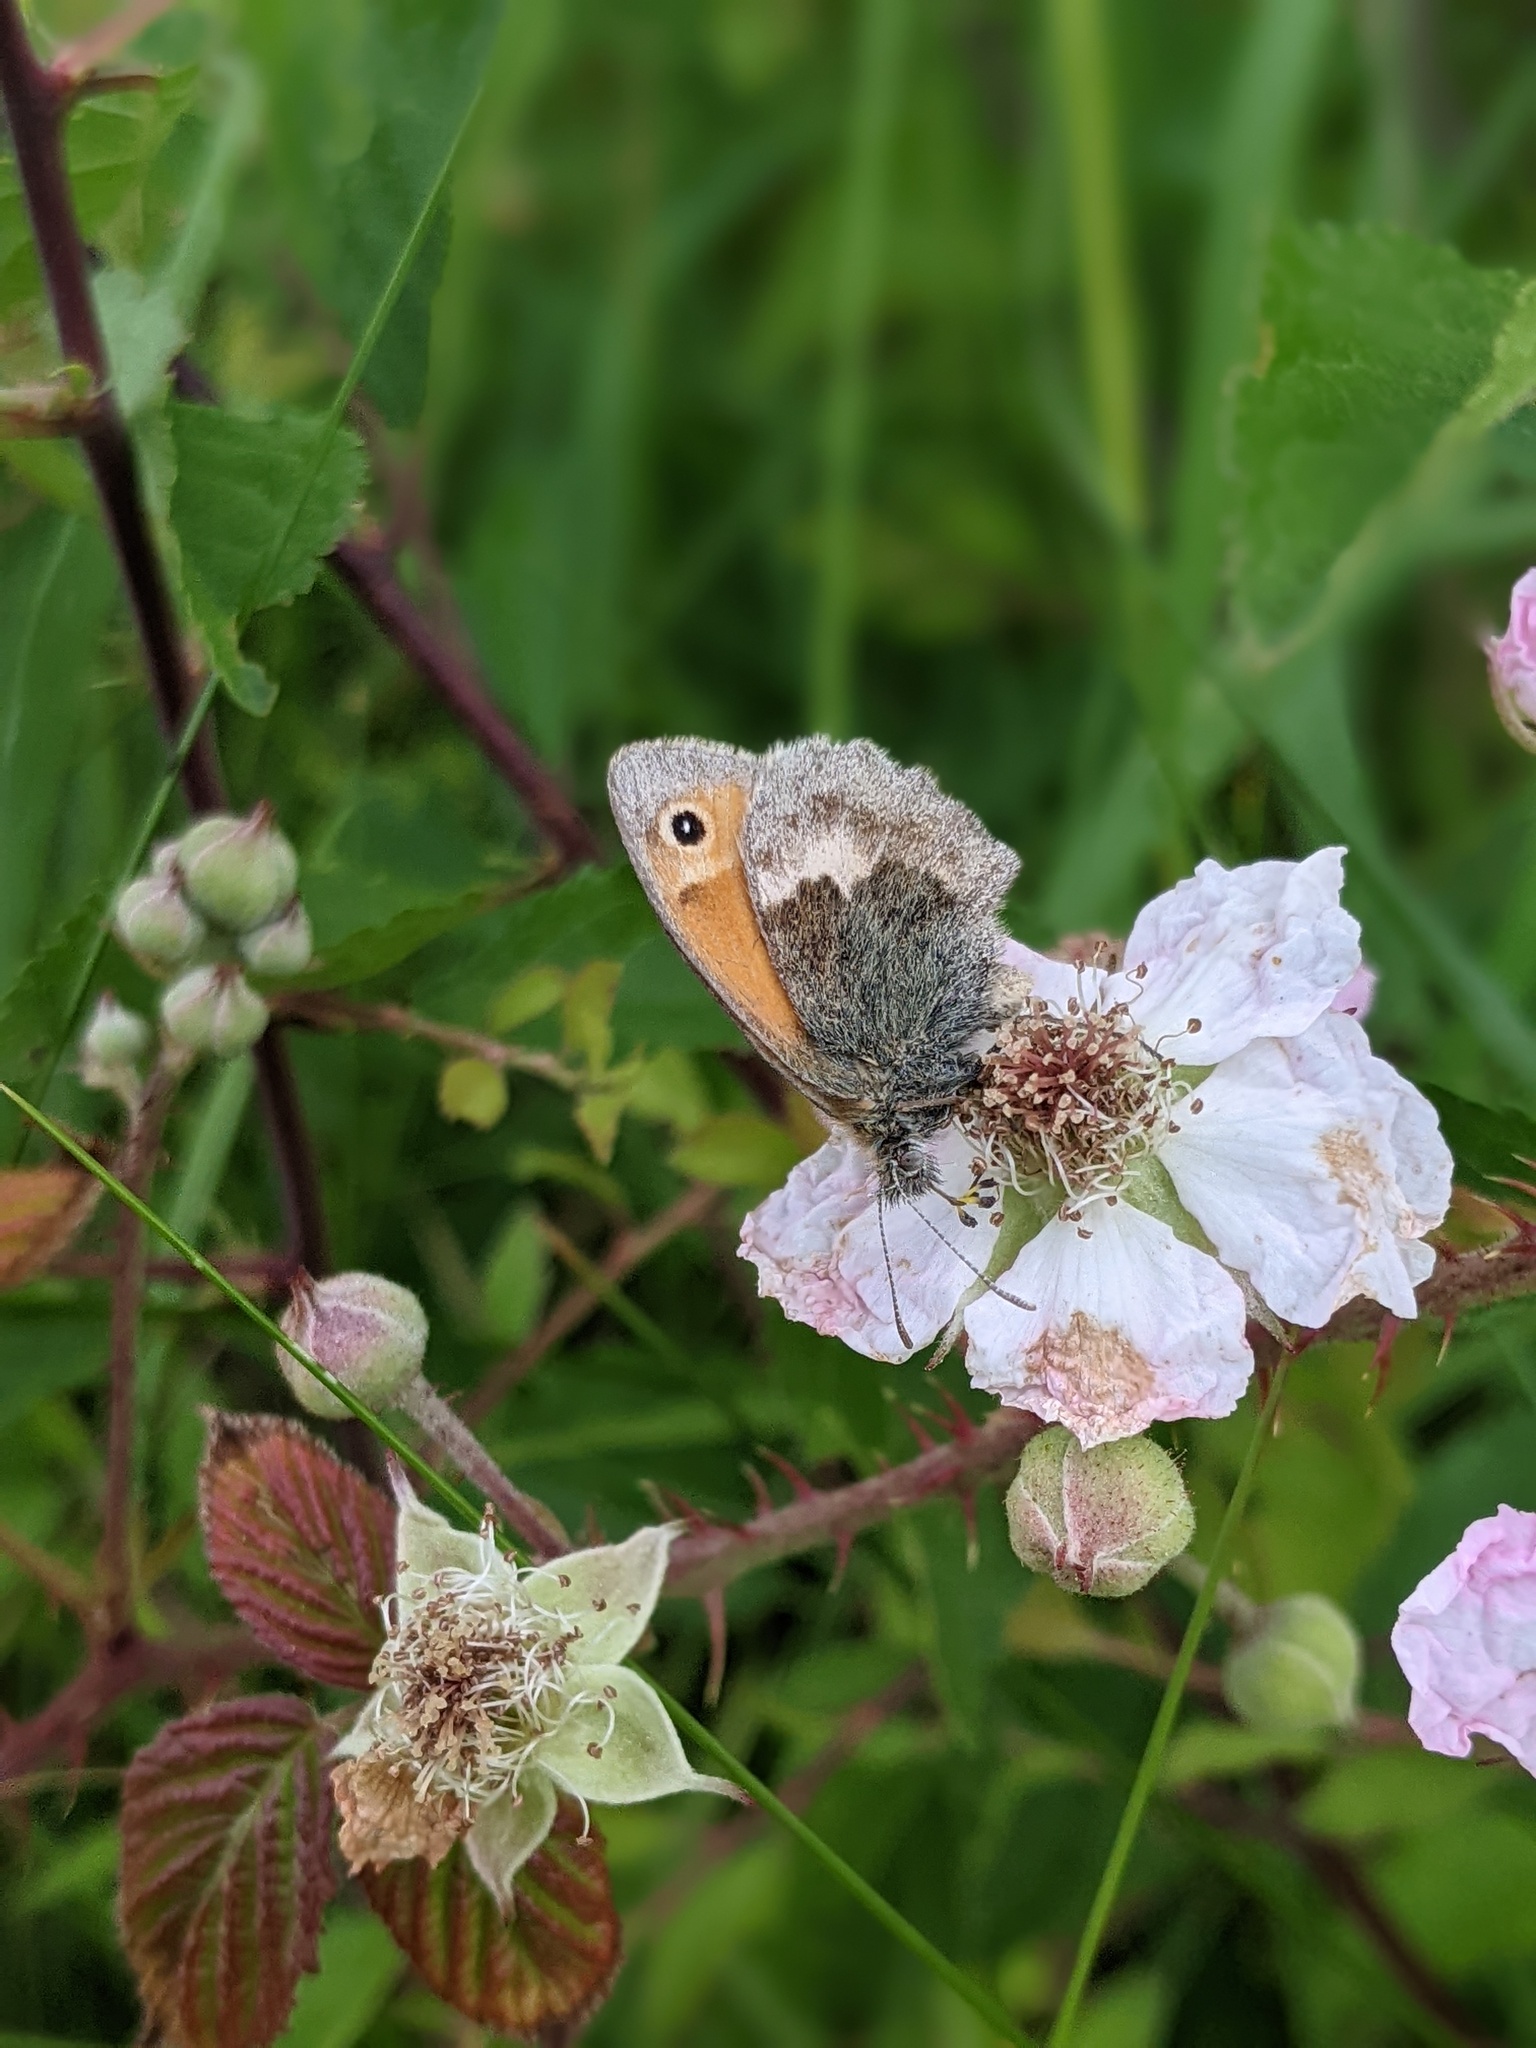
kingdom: Animalia
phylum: Arthropoda
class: Insecta
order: Lepidoptera
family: Nymphalidae
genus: Coenonympha
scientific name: Coenonympha pamphilus
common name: Small heath
